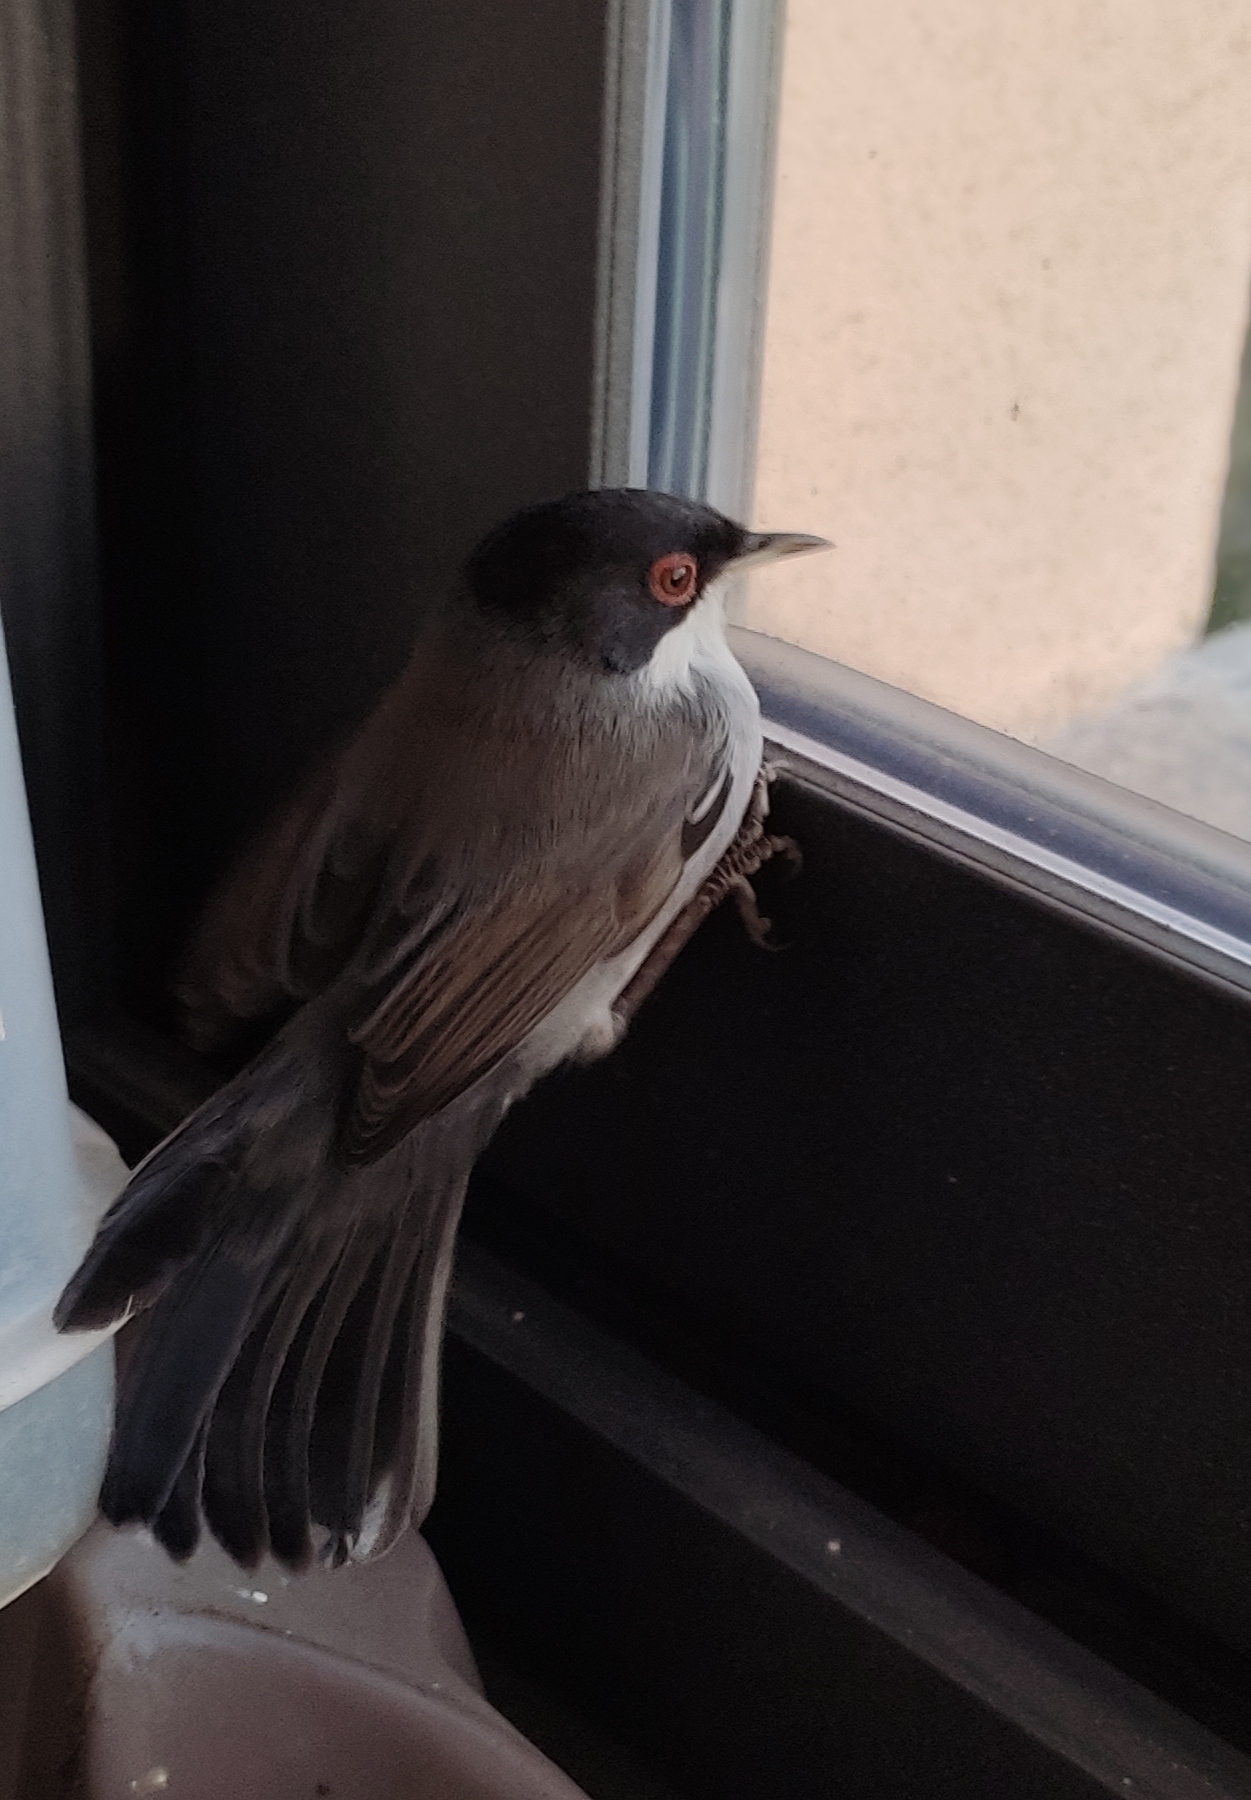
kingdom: Animalia
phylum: Chordata
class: Aves
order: Passeriformes
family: Sylviidae
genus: Curruca
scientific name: Curruca melanocephala
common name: Sardinian warbler
